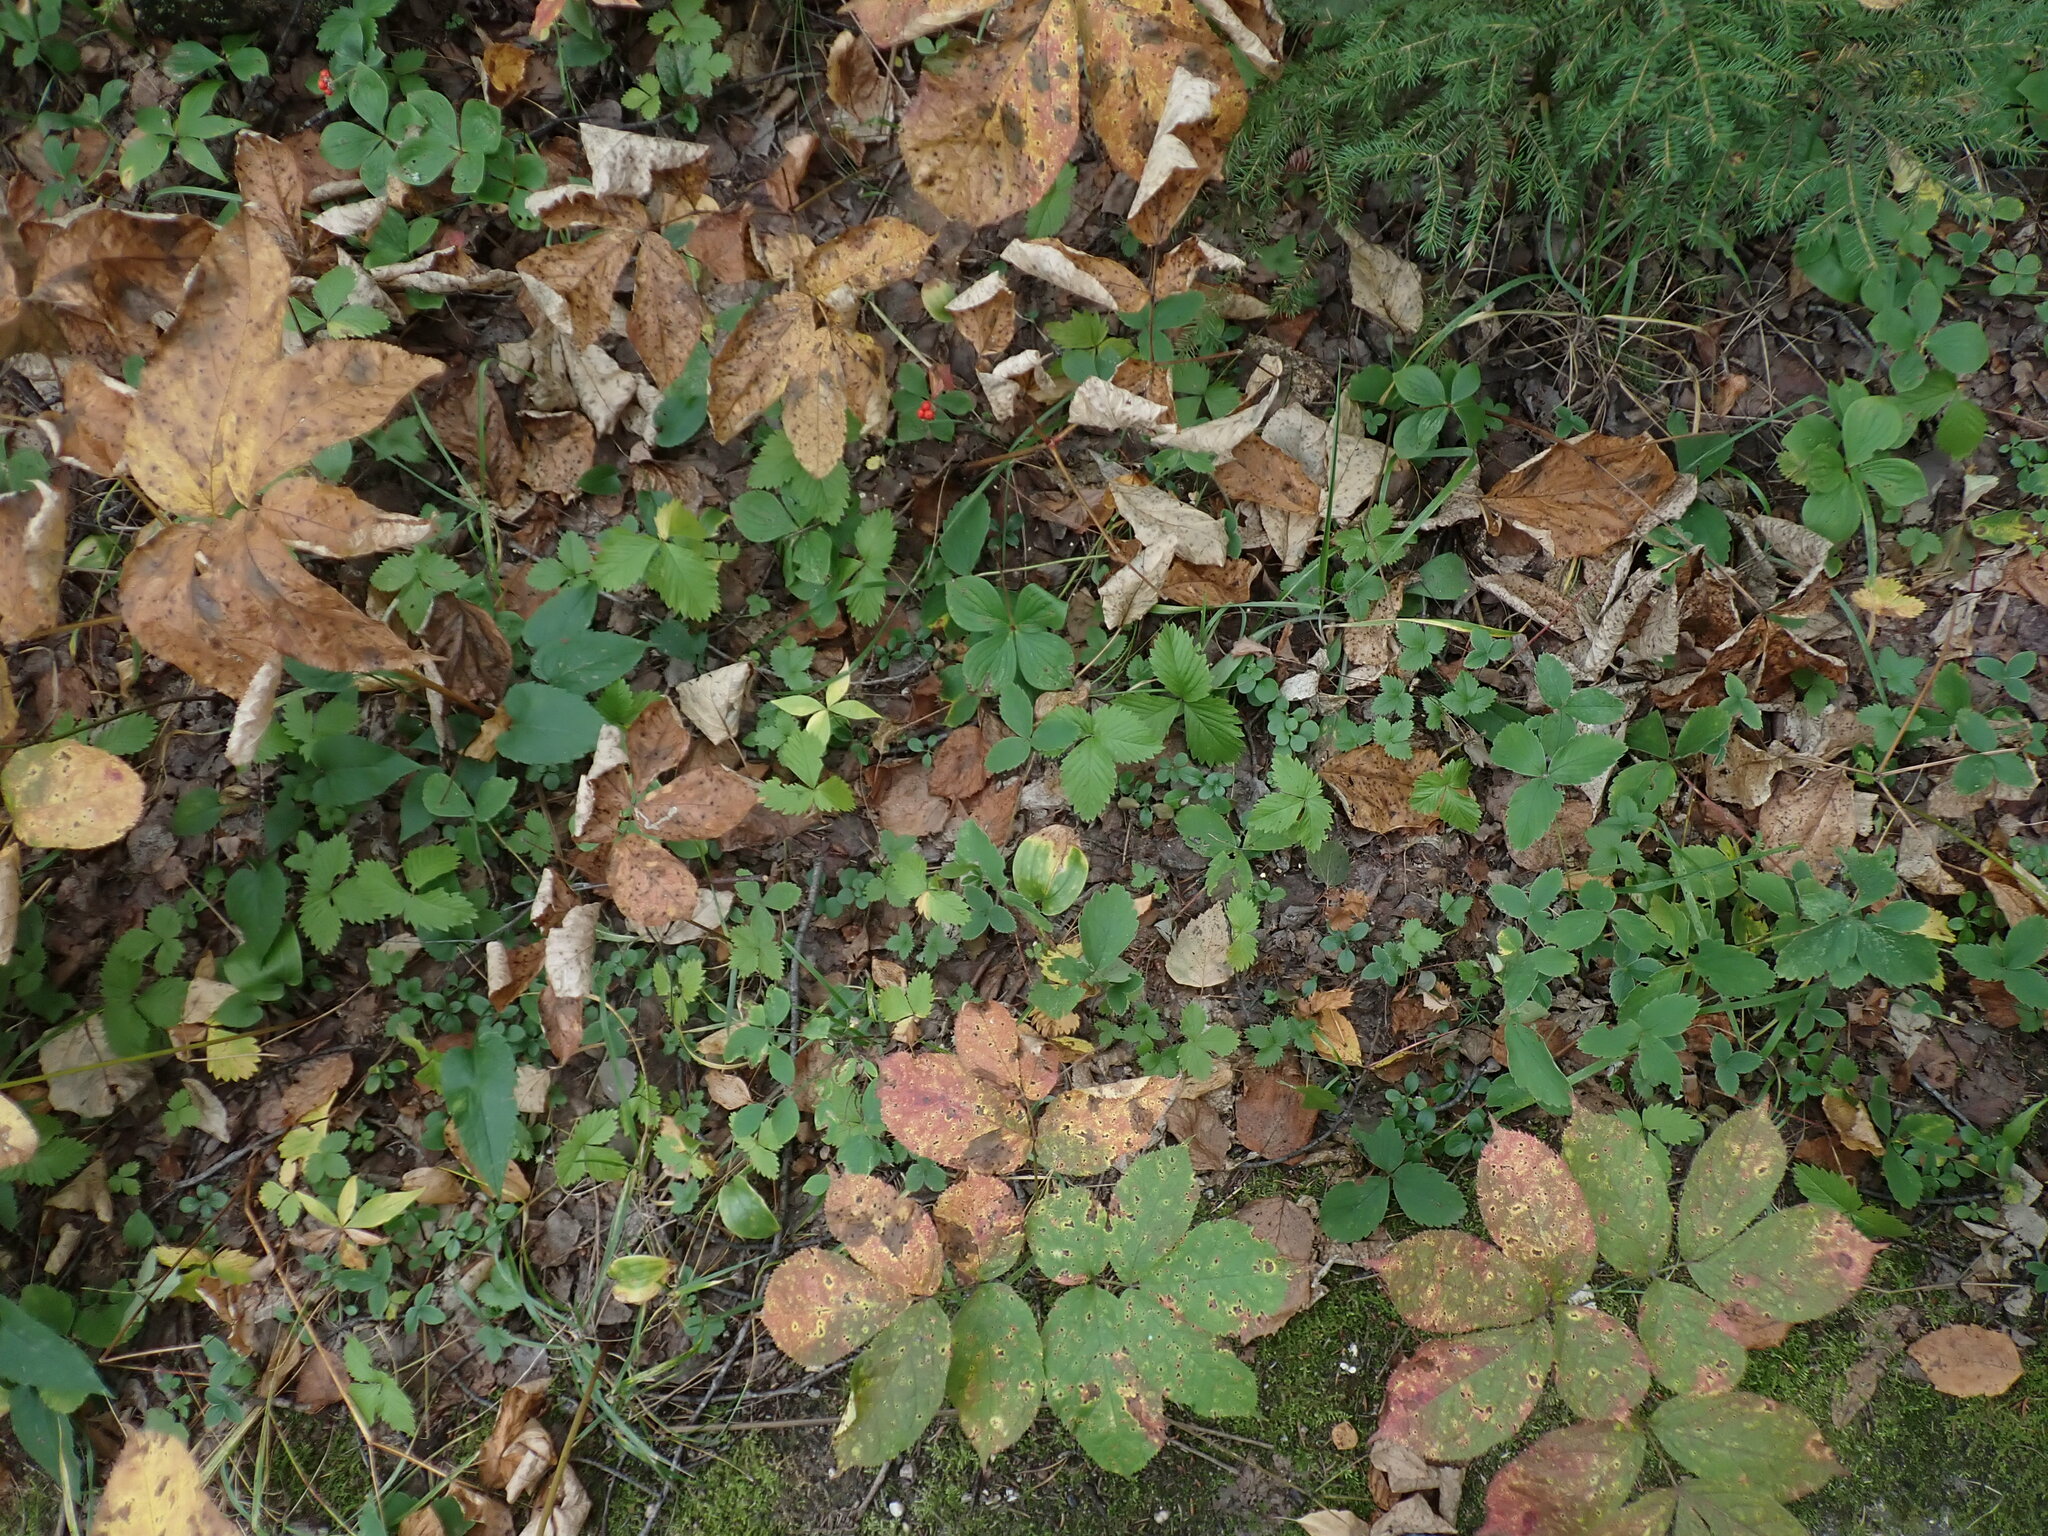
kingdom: Plantae
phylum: Tracheophyta
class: Magnoliopsida
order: Rosales
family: Rosaceae
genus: Fragaria
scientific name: Fragaria vesca
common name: Wild strawberry
